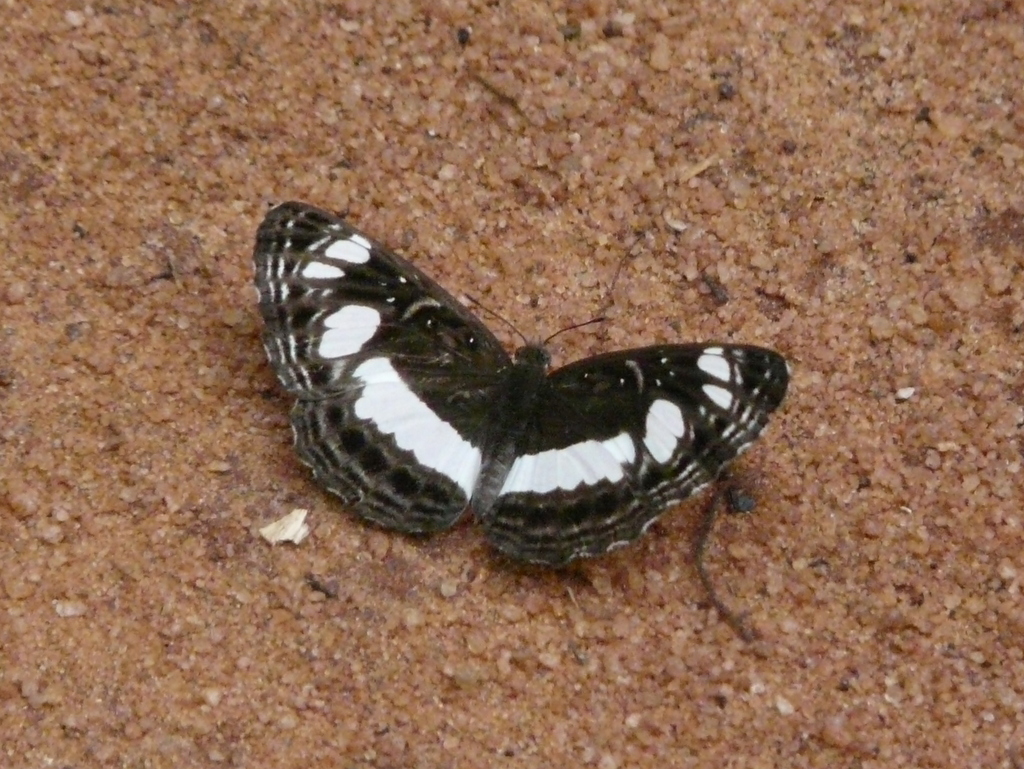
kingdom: Animalia
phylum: Arthropoda
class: Insecta
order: Lepidoptera
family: Nymphalidae
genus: Neptis
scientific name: Neptis saclava
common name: Small spotted sailor
